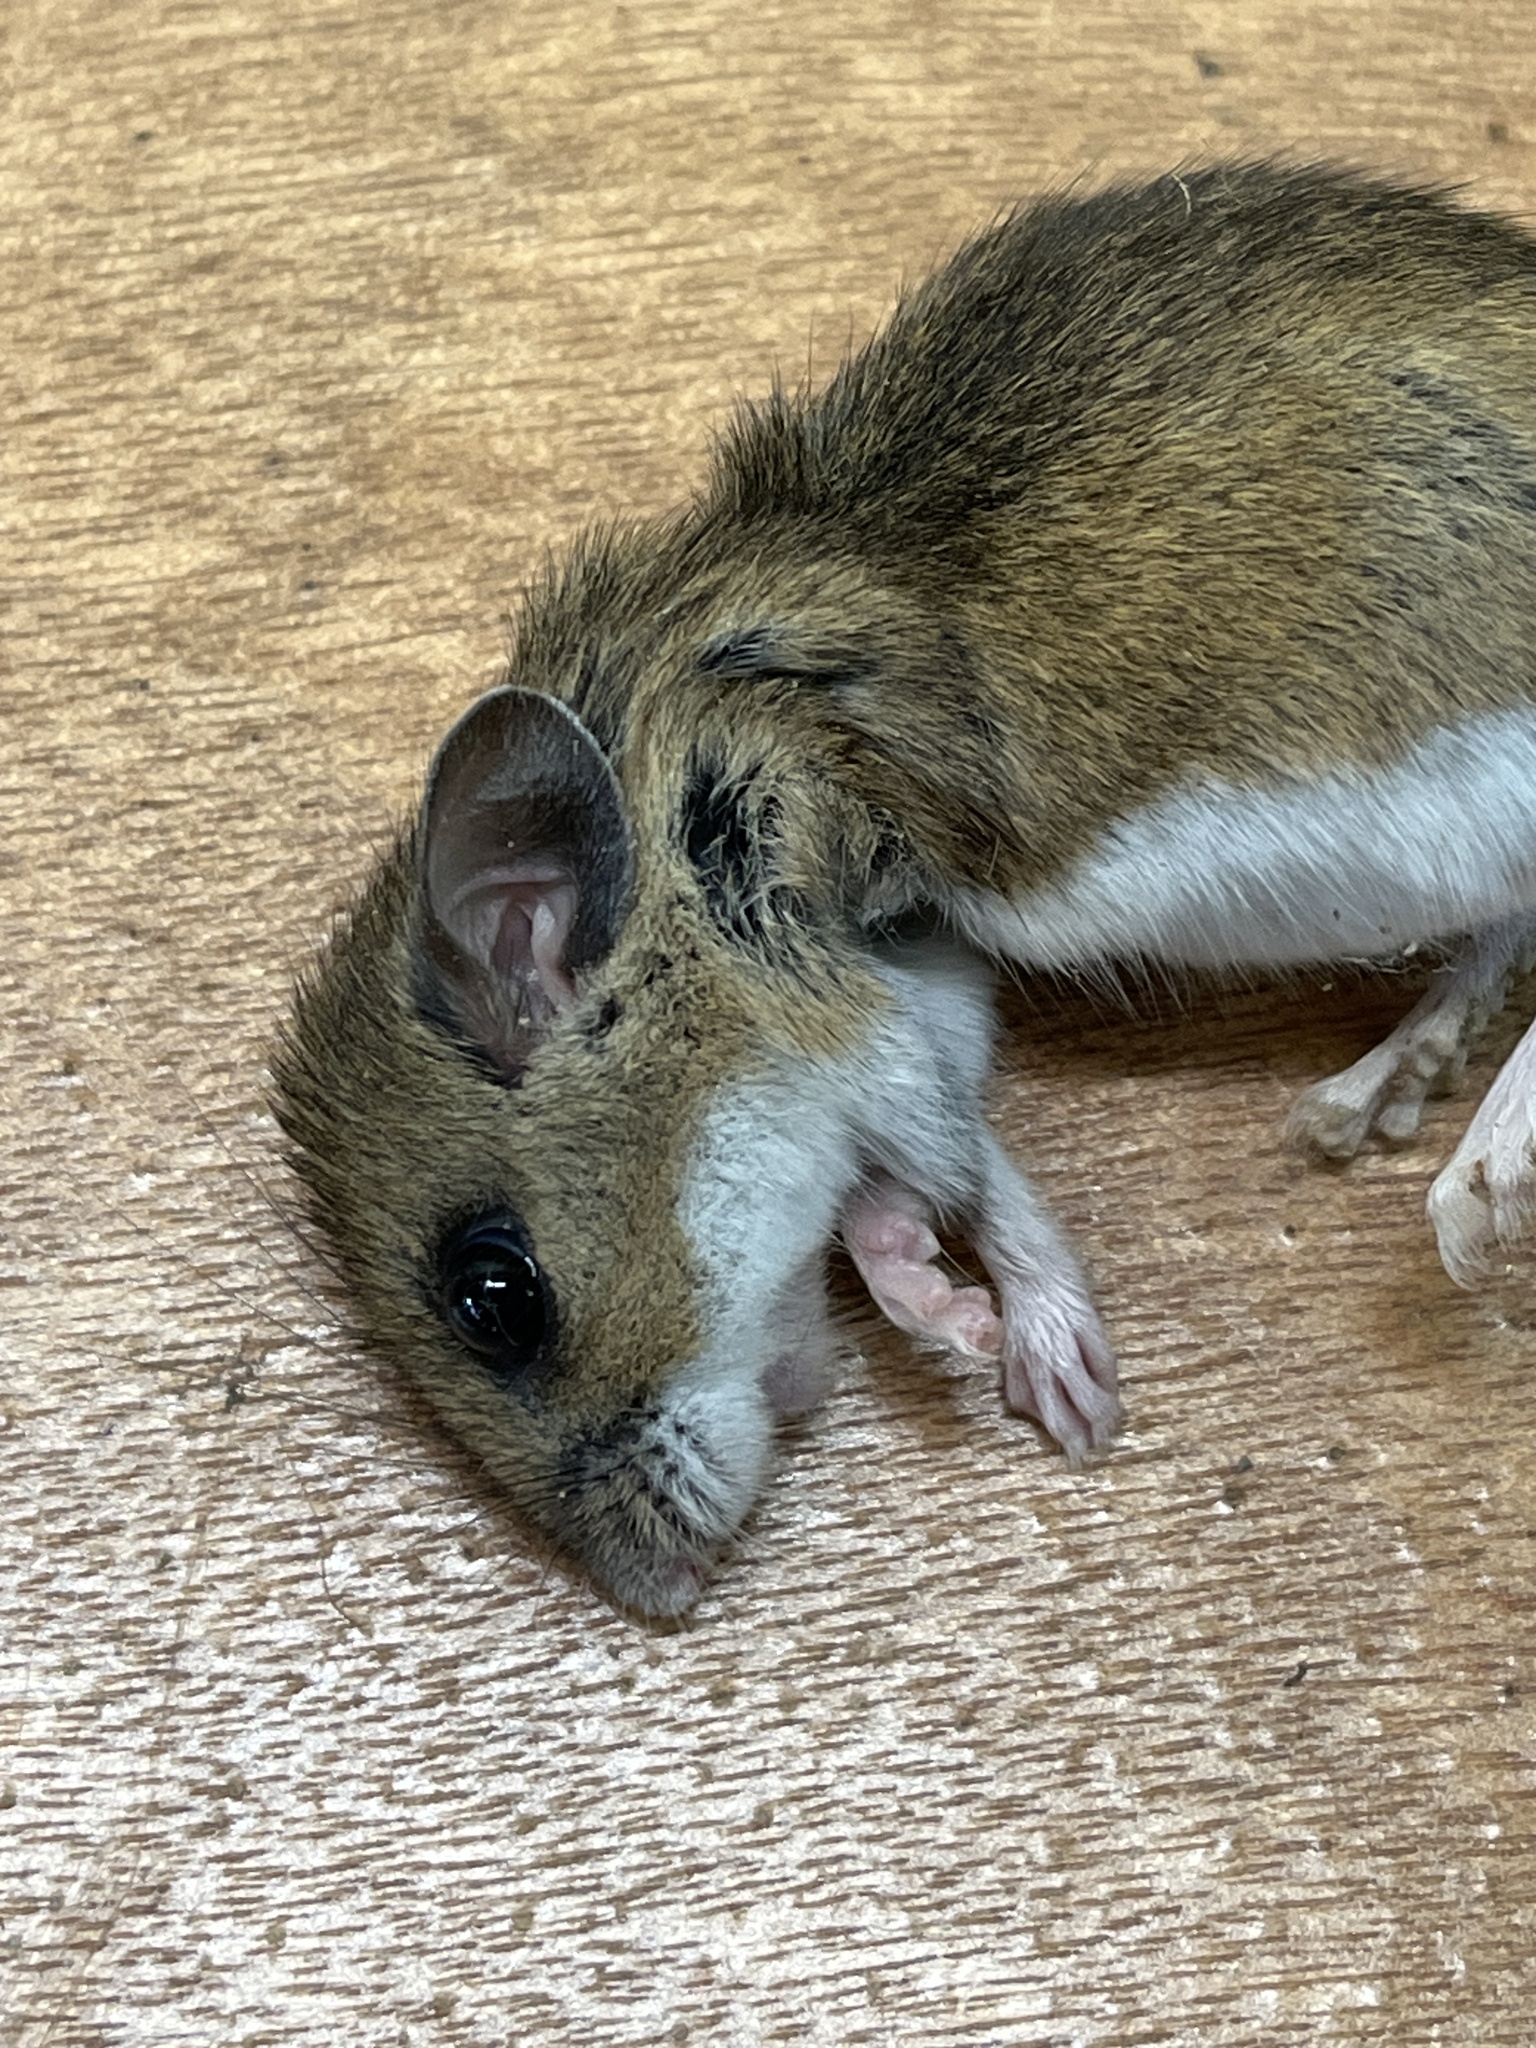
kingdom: Animalia
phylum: Chordata
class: Mammalia
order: Rodentia
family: Cricetidae
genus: Peromyscus
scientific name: Peromyscus maniculatus
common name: Deer mouse
